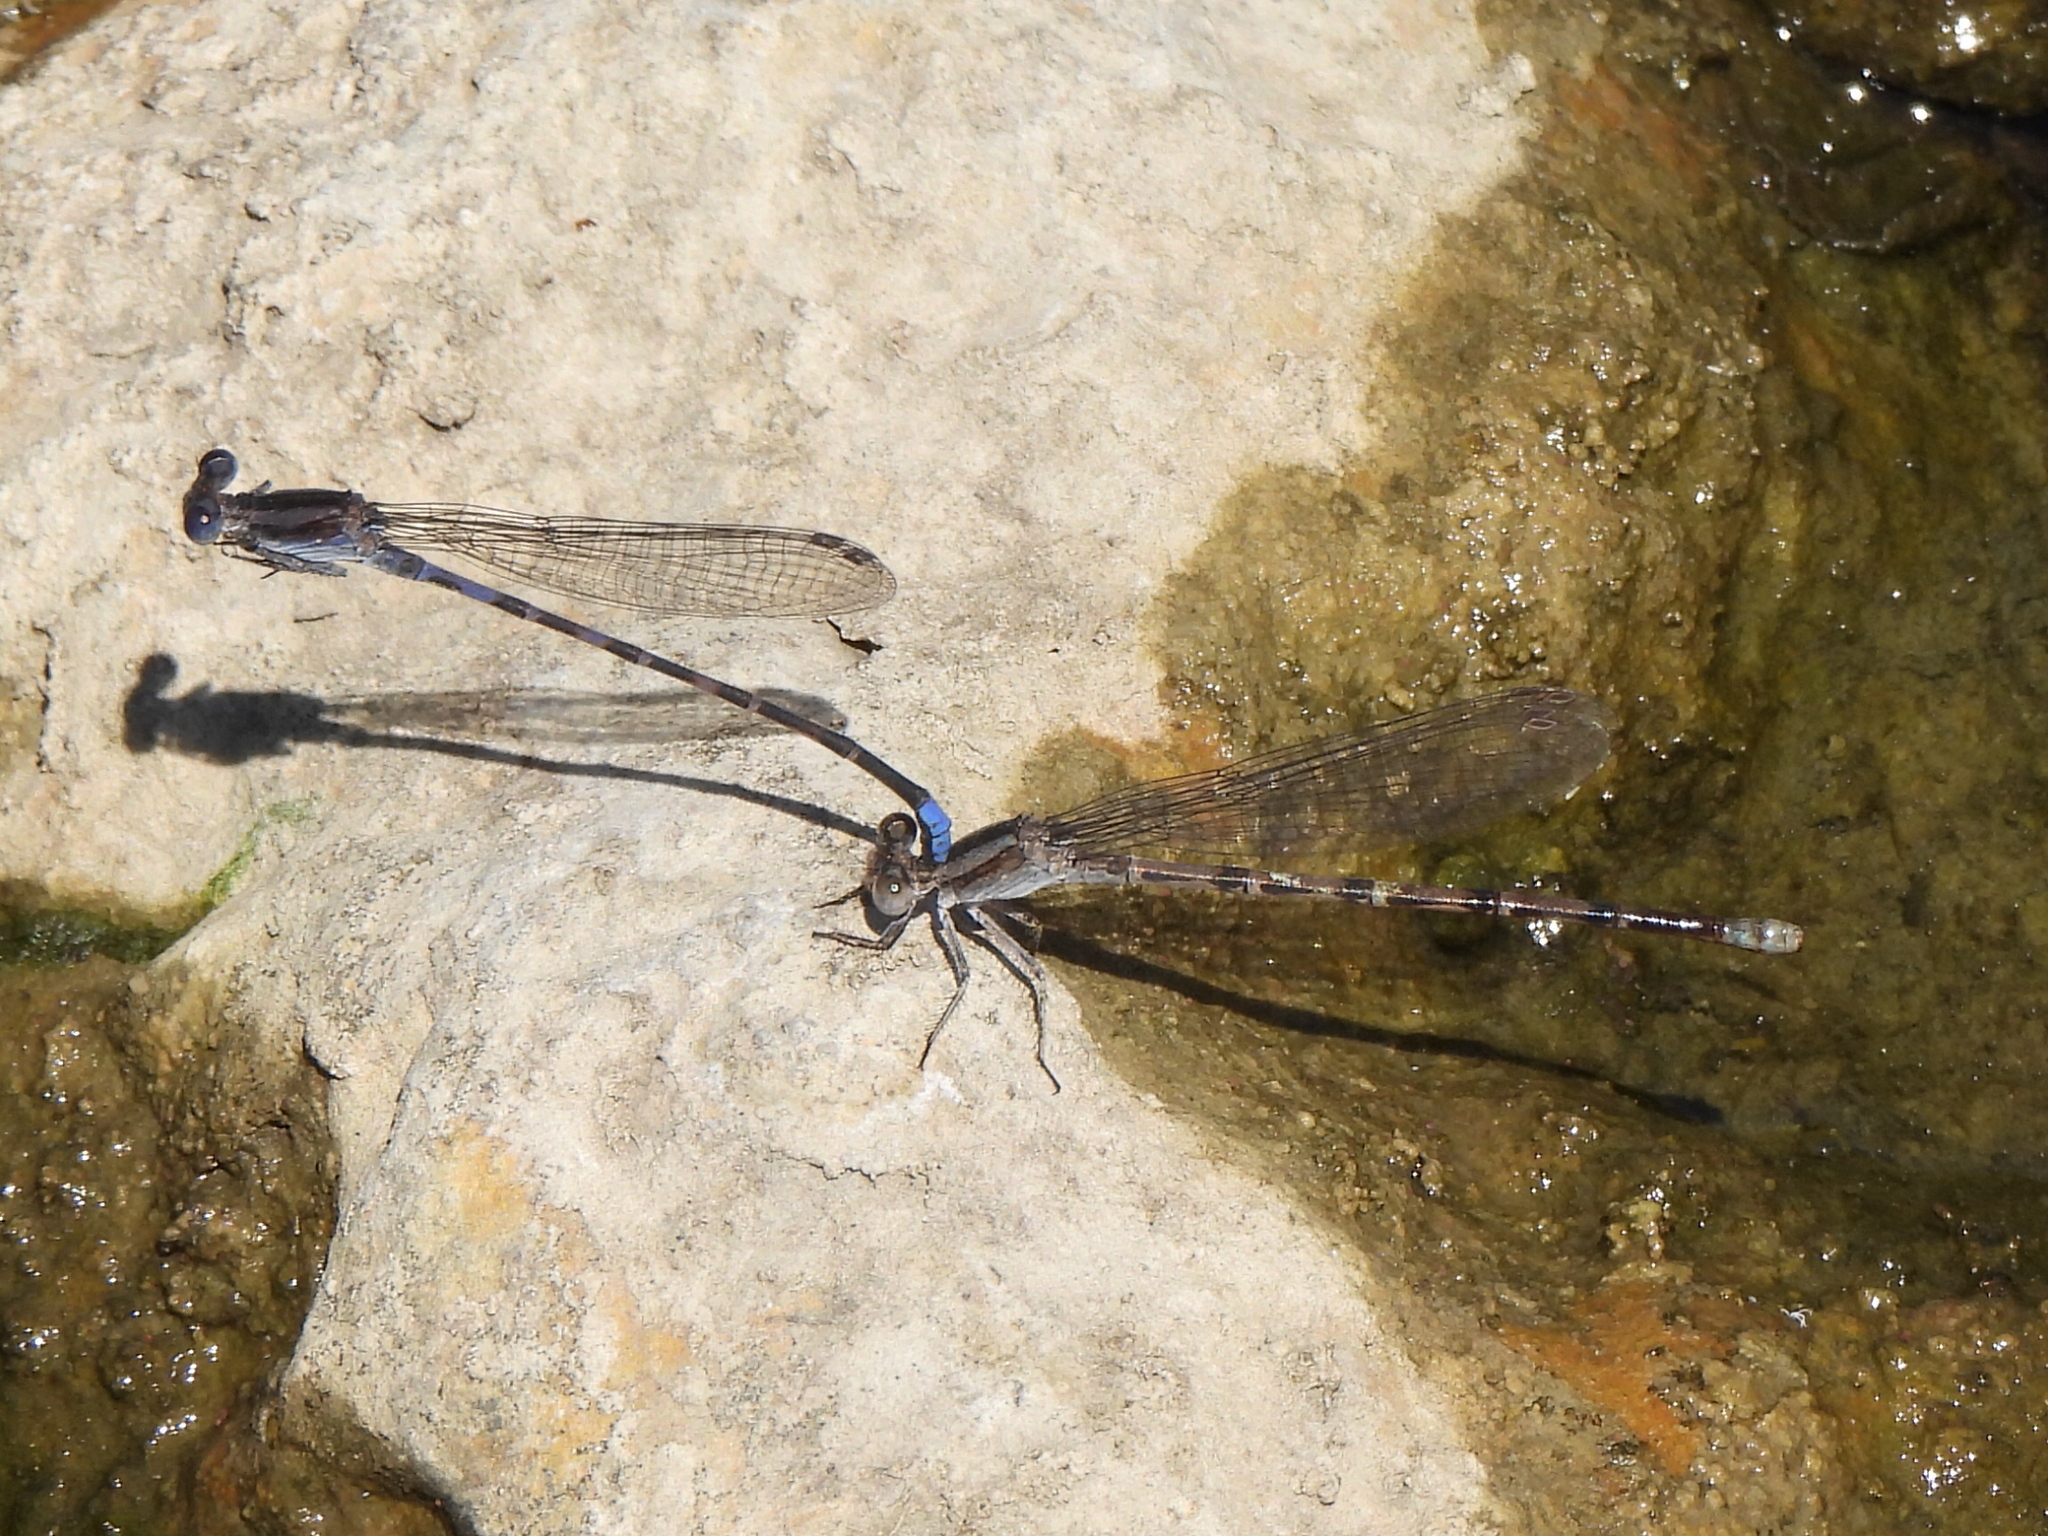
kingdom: Animalia
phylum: Arthropoda
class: Insecta
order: Odonata
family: Coenagrionidae
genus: Argia
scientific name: Argia immunda
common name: Kiowa dancer
